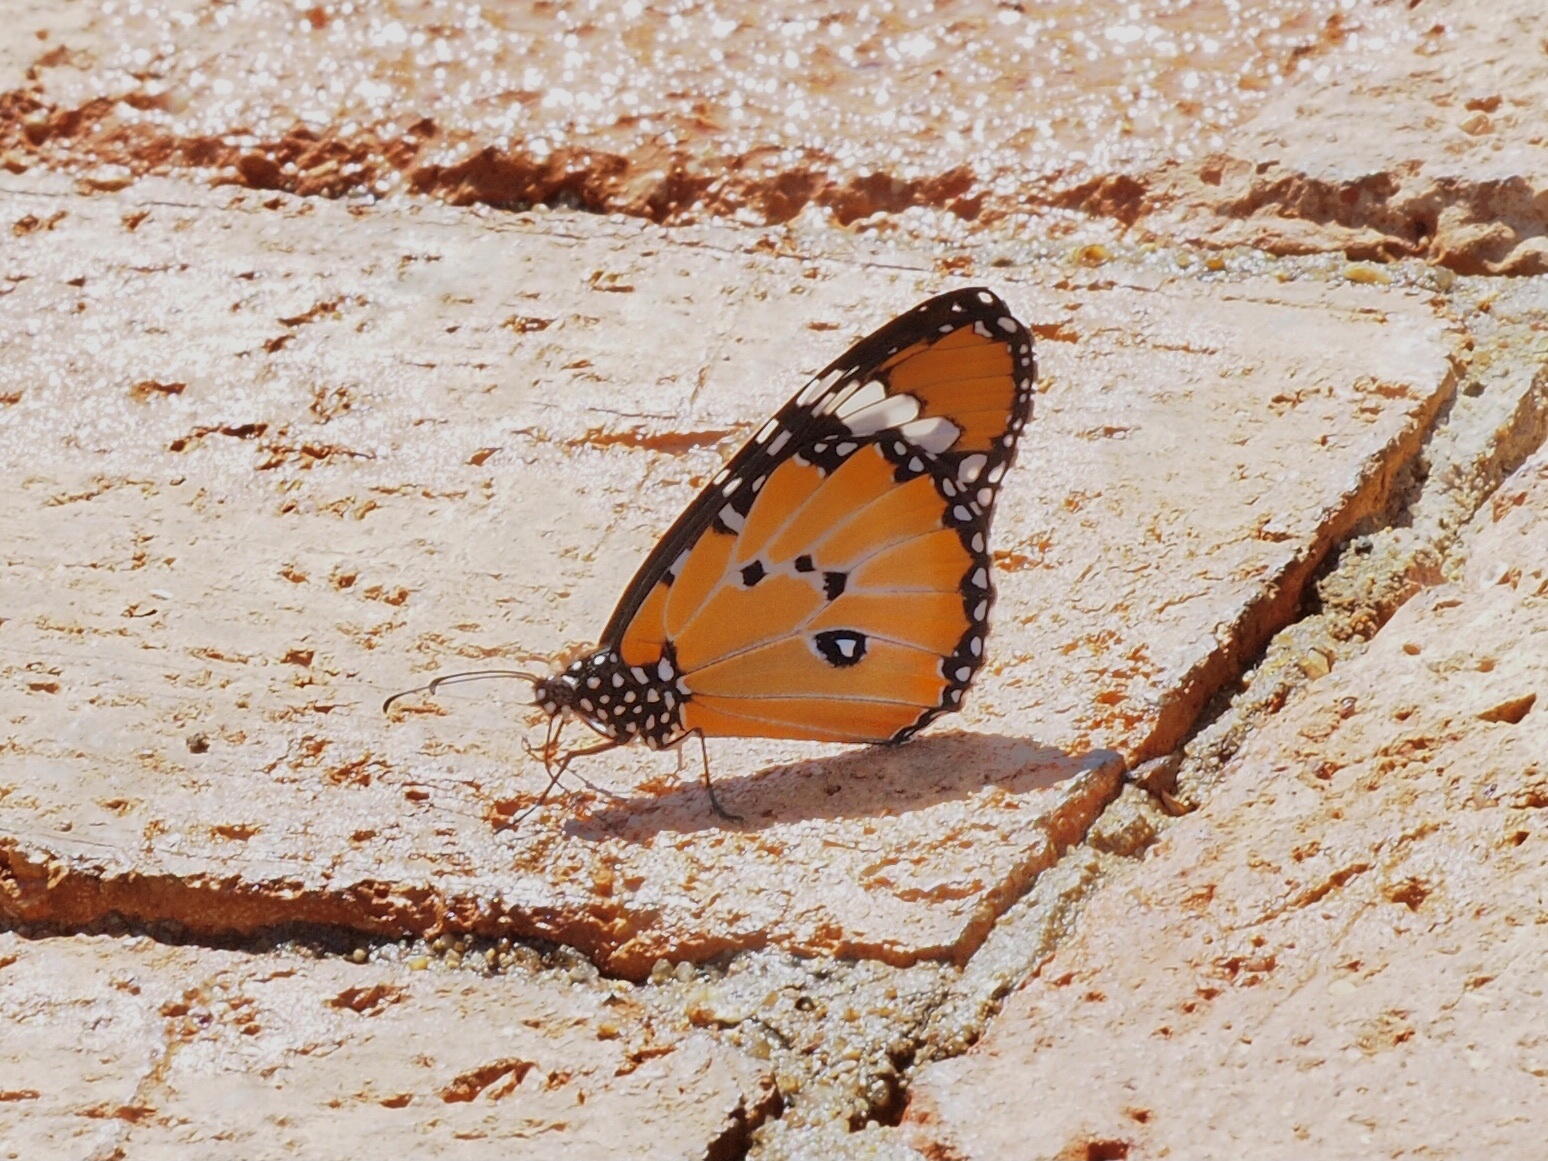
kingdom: Animalia
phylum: Arthropoda
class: Insecta
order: Lepidoptera
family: Nymphalidae
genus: Danaus
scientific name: Danaus chrysippus
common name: Plain tiger
